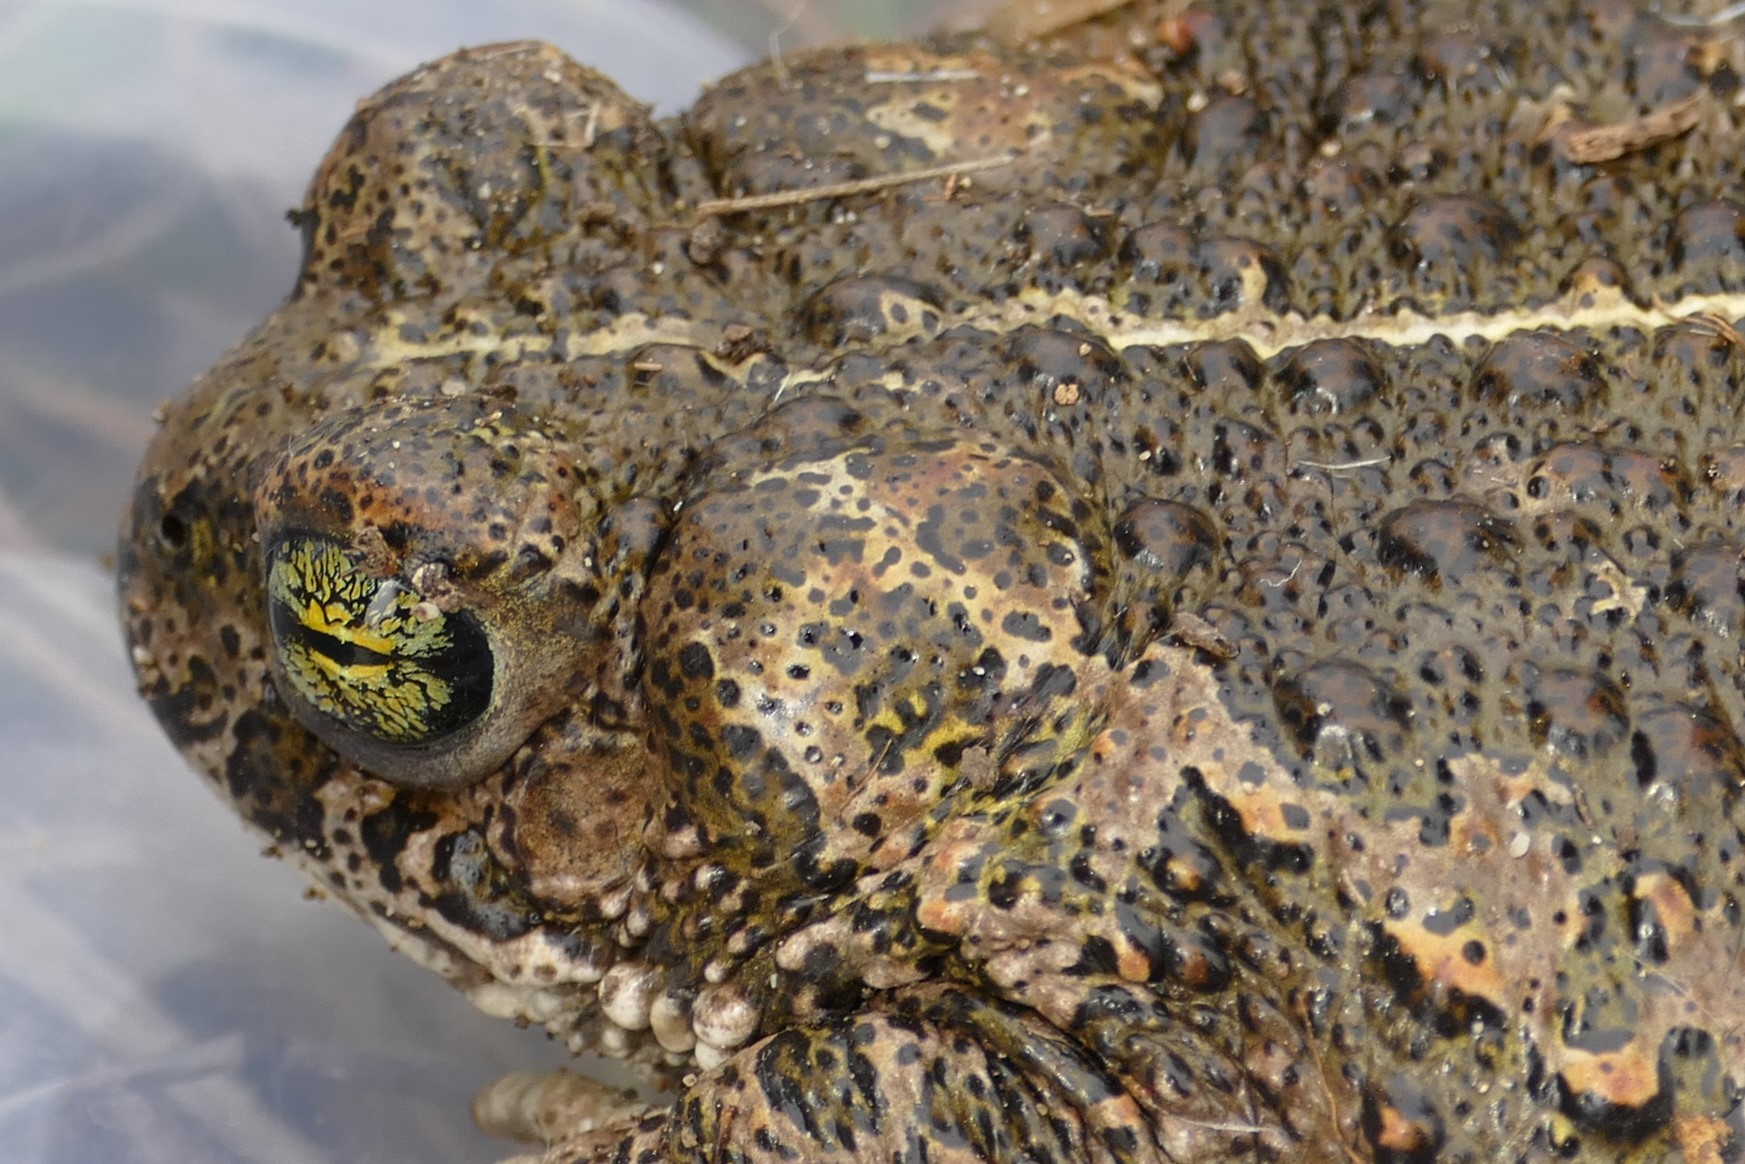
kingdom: Animalia
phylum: Chordata
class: Amphibia
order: Anura
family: Bufonidae
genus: Epidalea
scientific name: Epidalea calamita
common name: Natterjack toad
